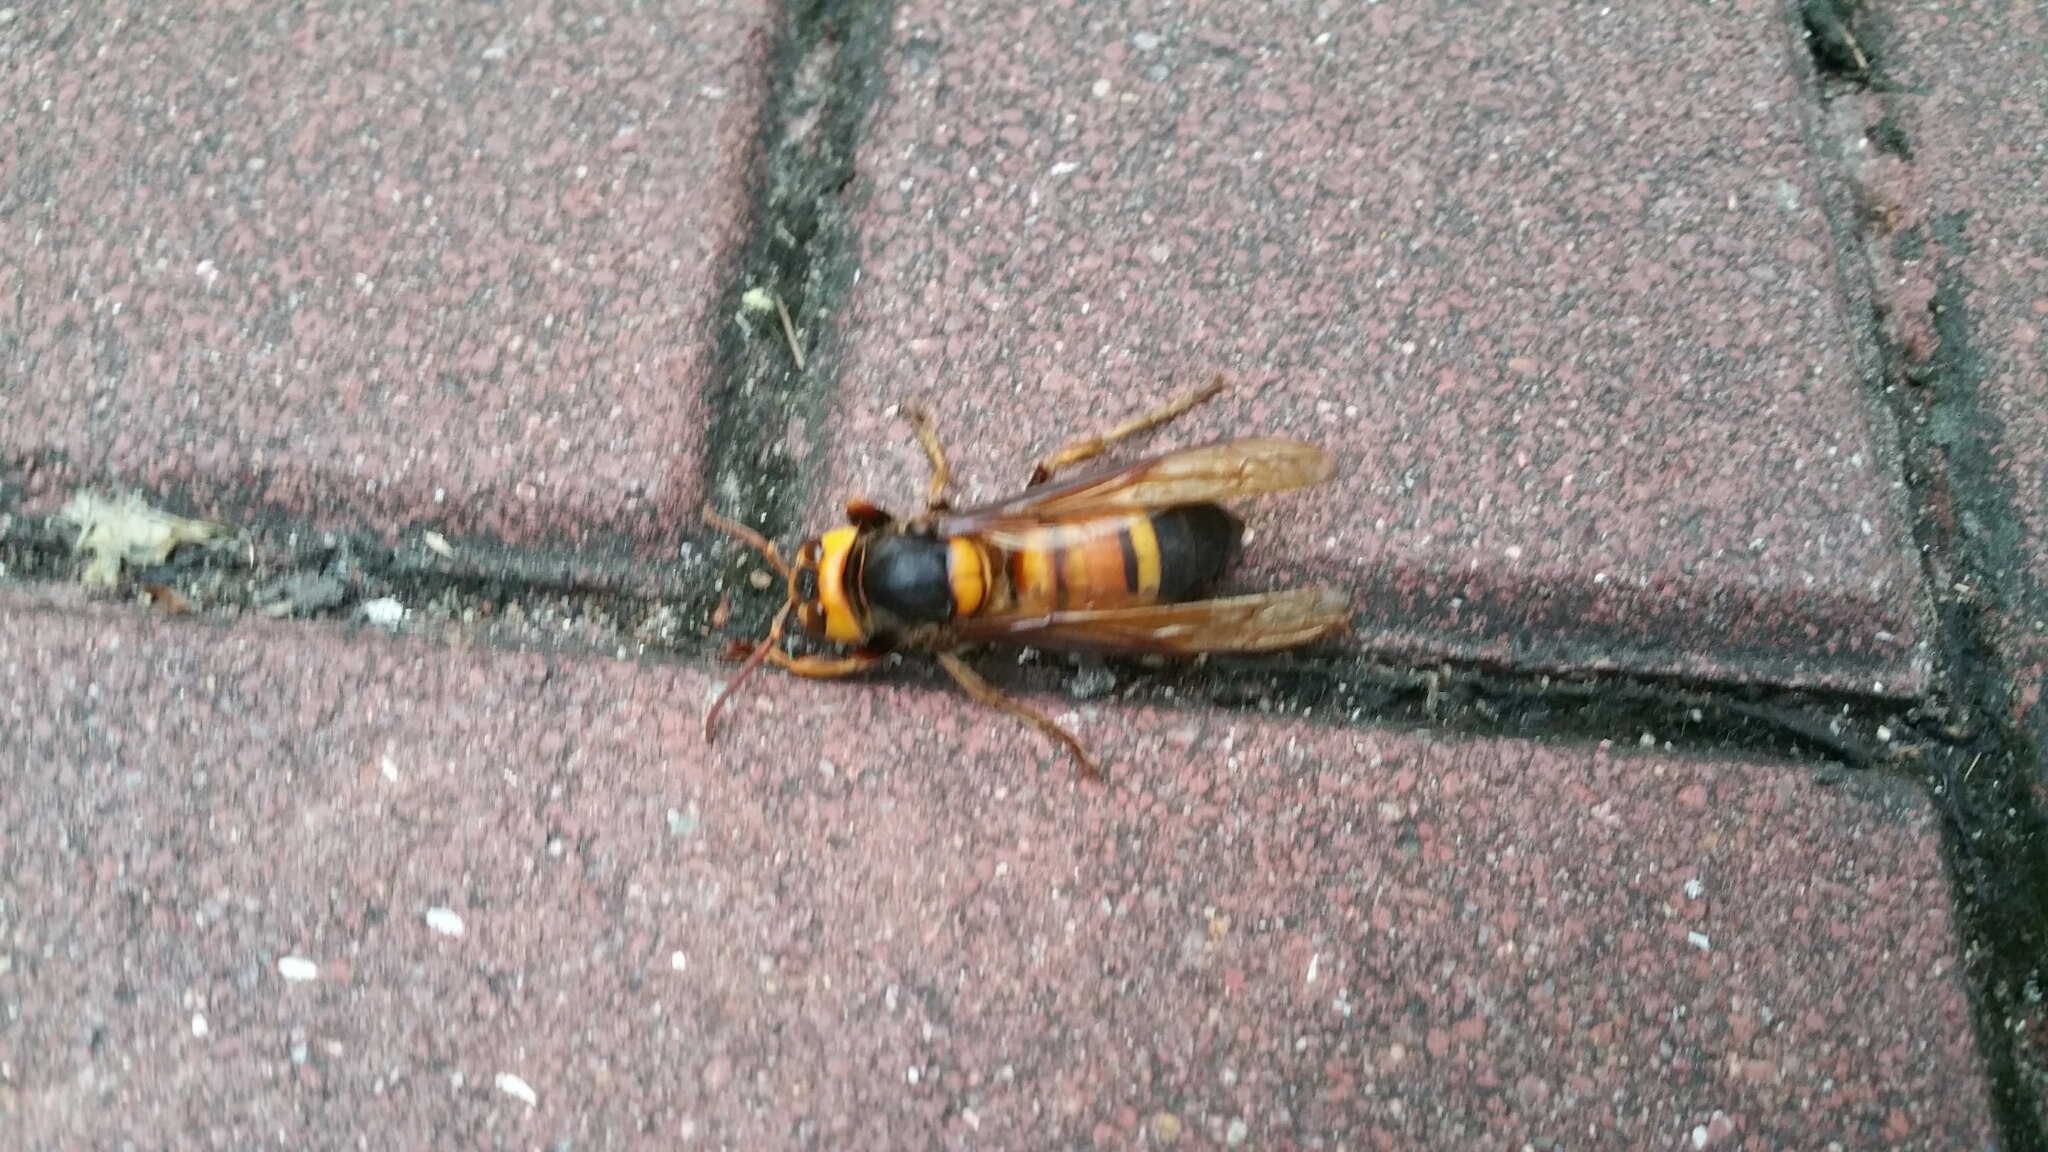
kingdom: Animalia
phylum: Arthropoda
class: Insecta
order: Hymenoptera
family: Vespidae
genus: Vespa
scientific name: Vespa soror
